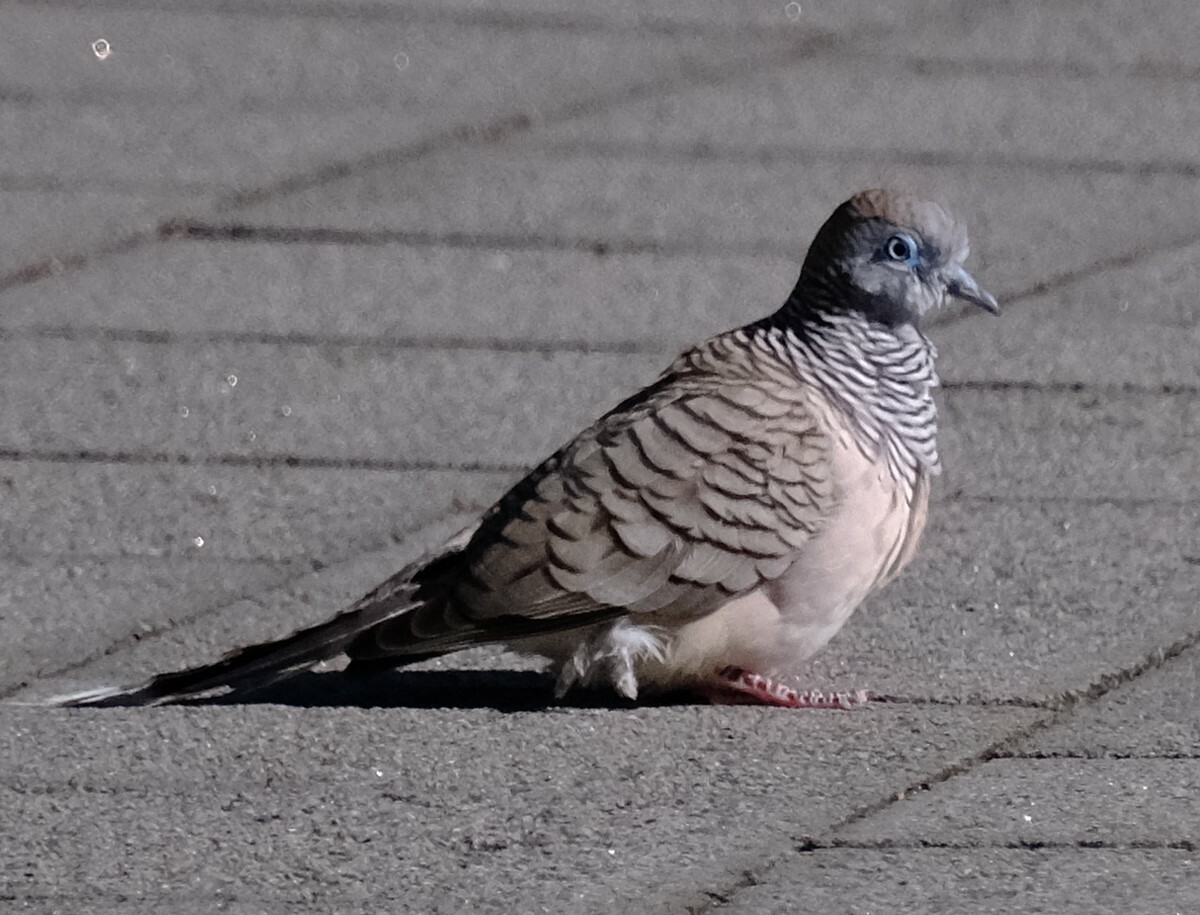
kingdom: Animalia
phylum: Chordata
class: Aves
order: Columbiformes
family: Columbidae
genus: Geopelia
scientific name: Geopelia placida
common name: Peaceful dove
